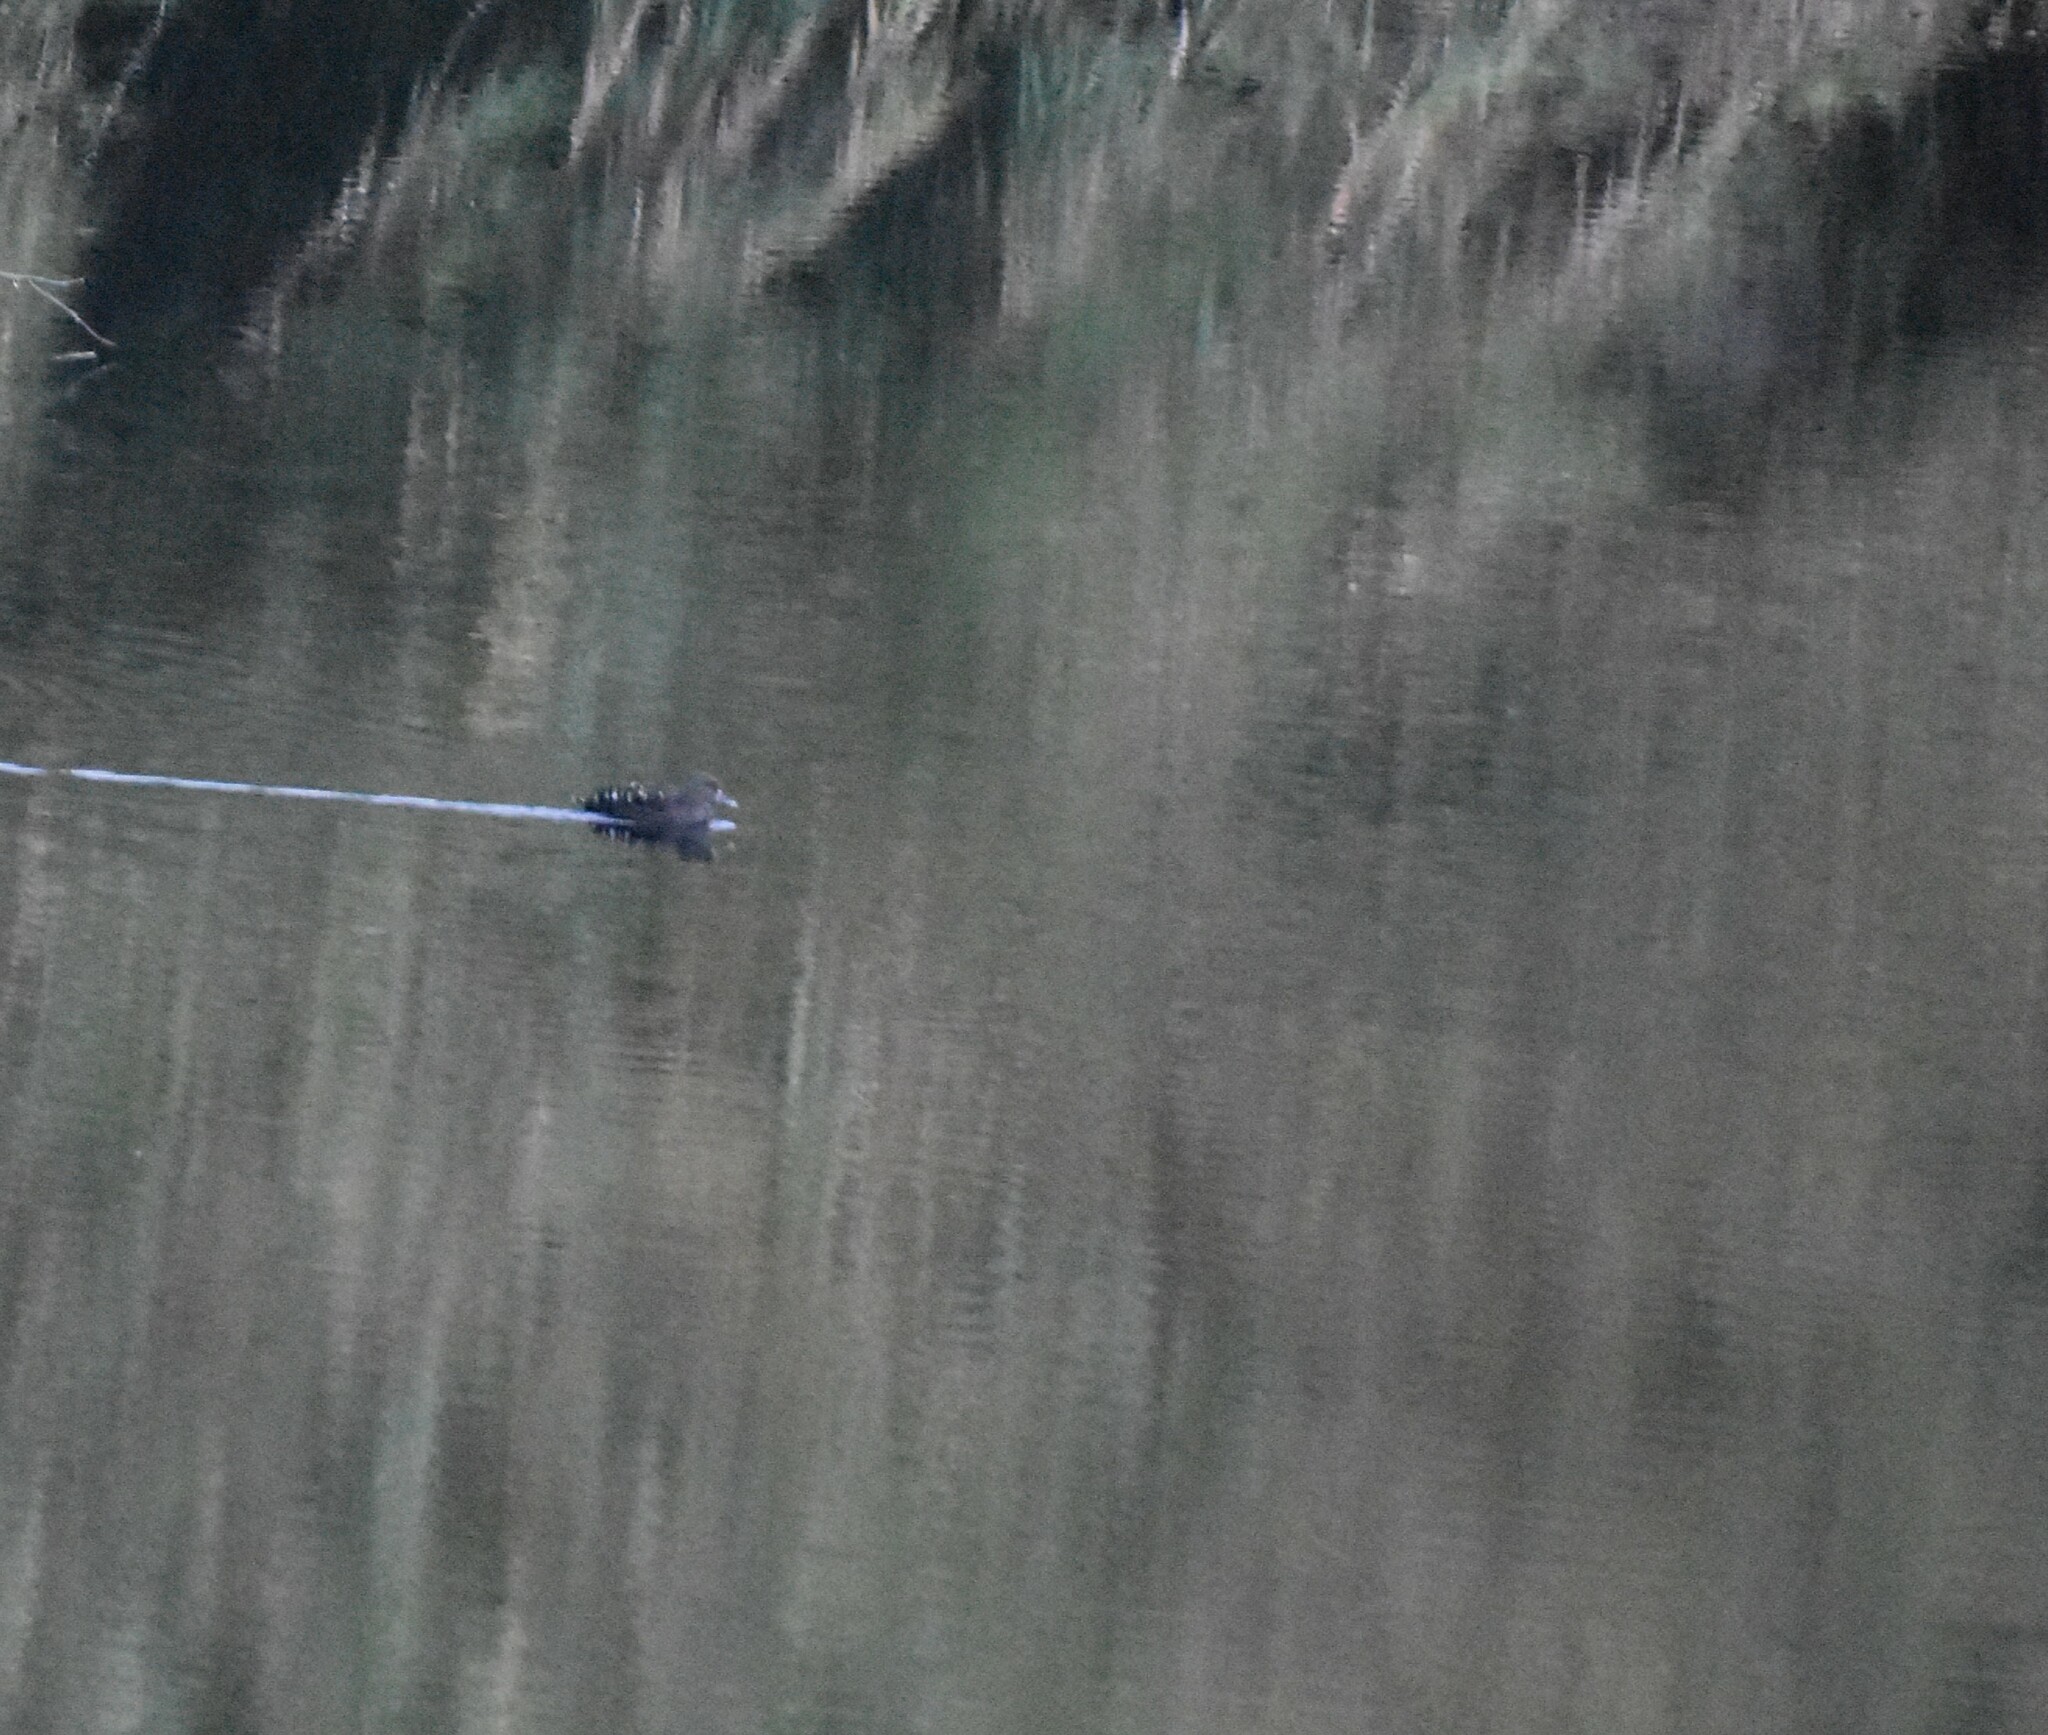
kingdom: Animalia
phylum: Chordata
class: Aves
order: Anseriformes
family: Anatidae
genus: Anas
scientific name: Anas sparsa
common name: African black duck
